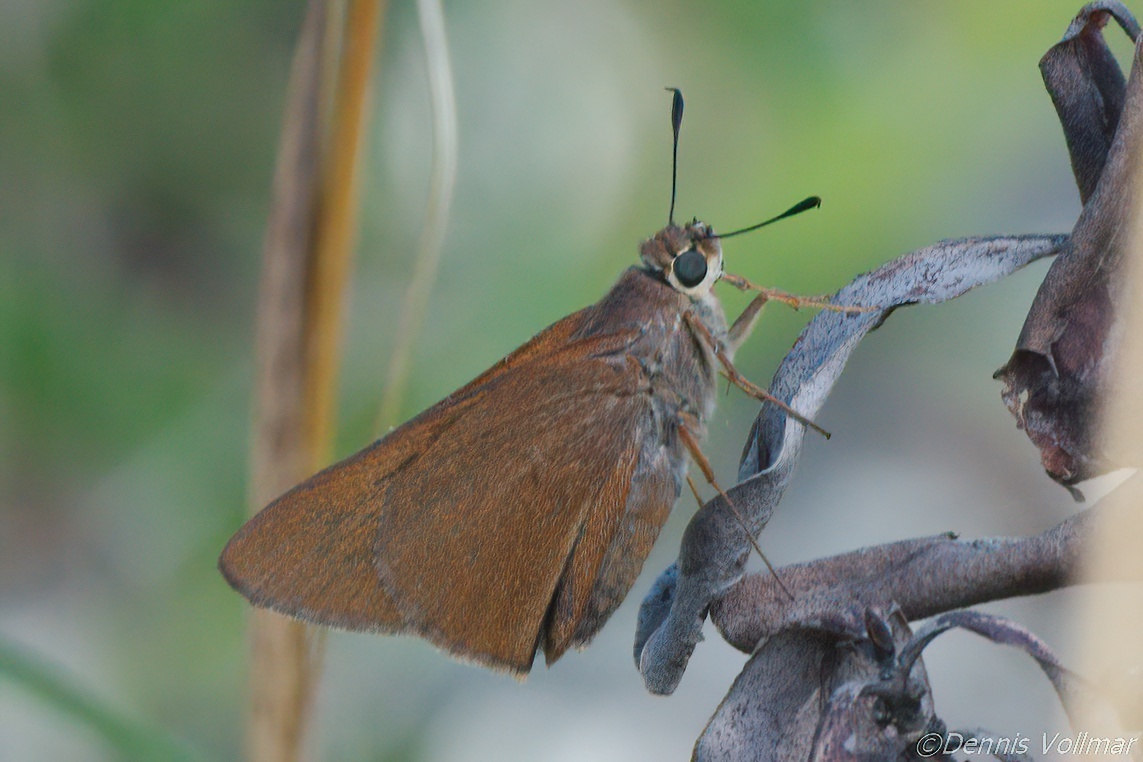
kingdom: Animalia
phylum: Arthropoda
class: Insecta
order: Lepidoptera
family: Hesperiidae
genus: Asbolis
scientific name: Asbolis capucinus
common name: Monk skipper
